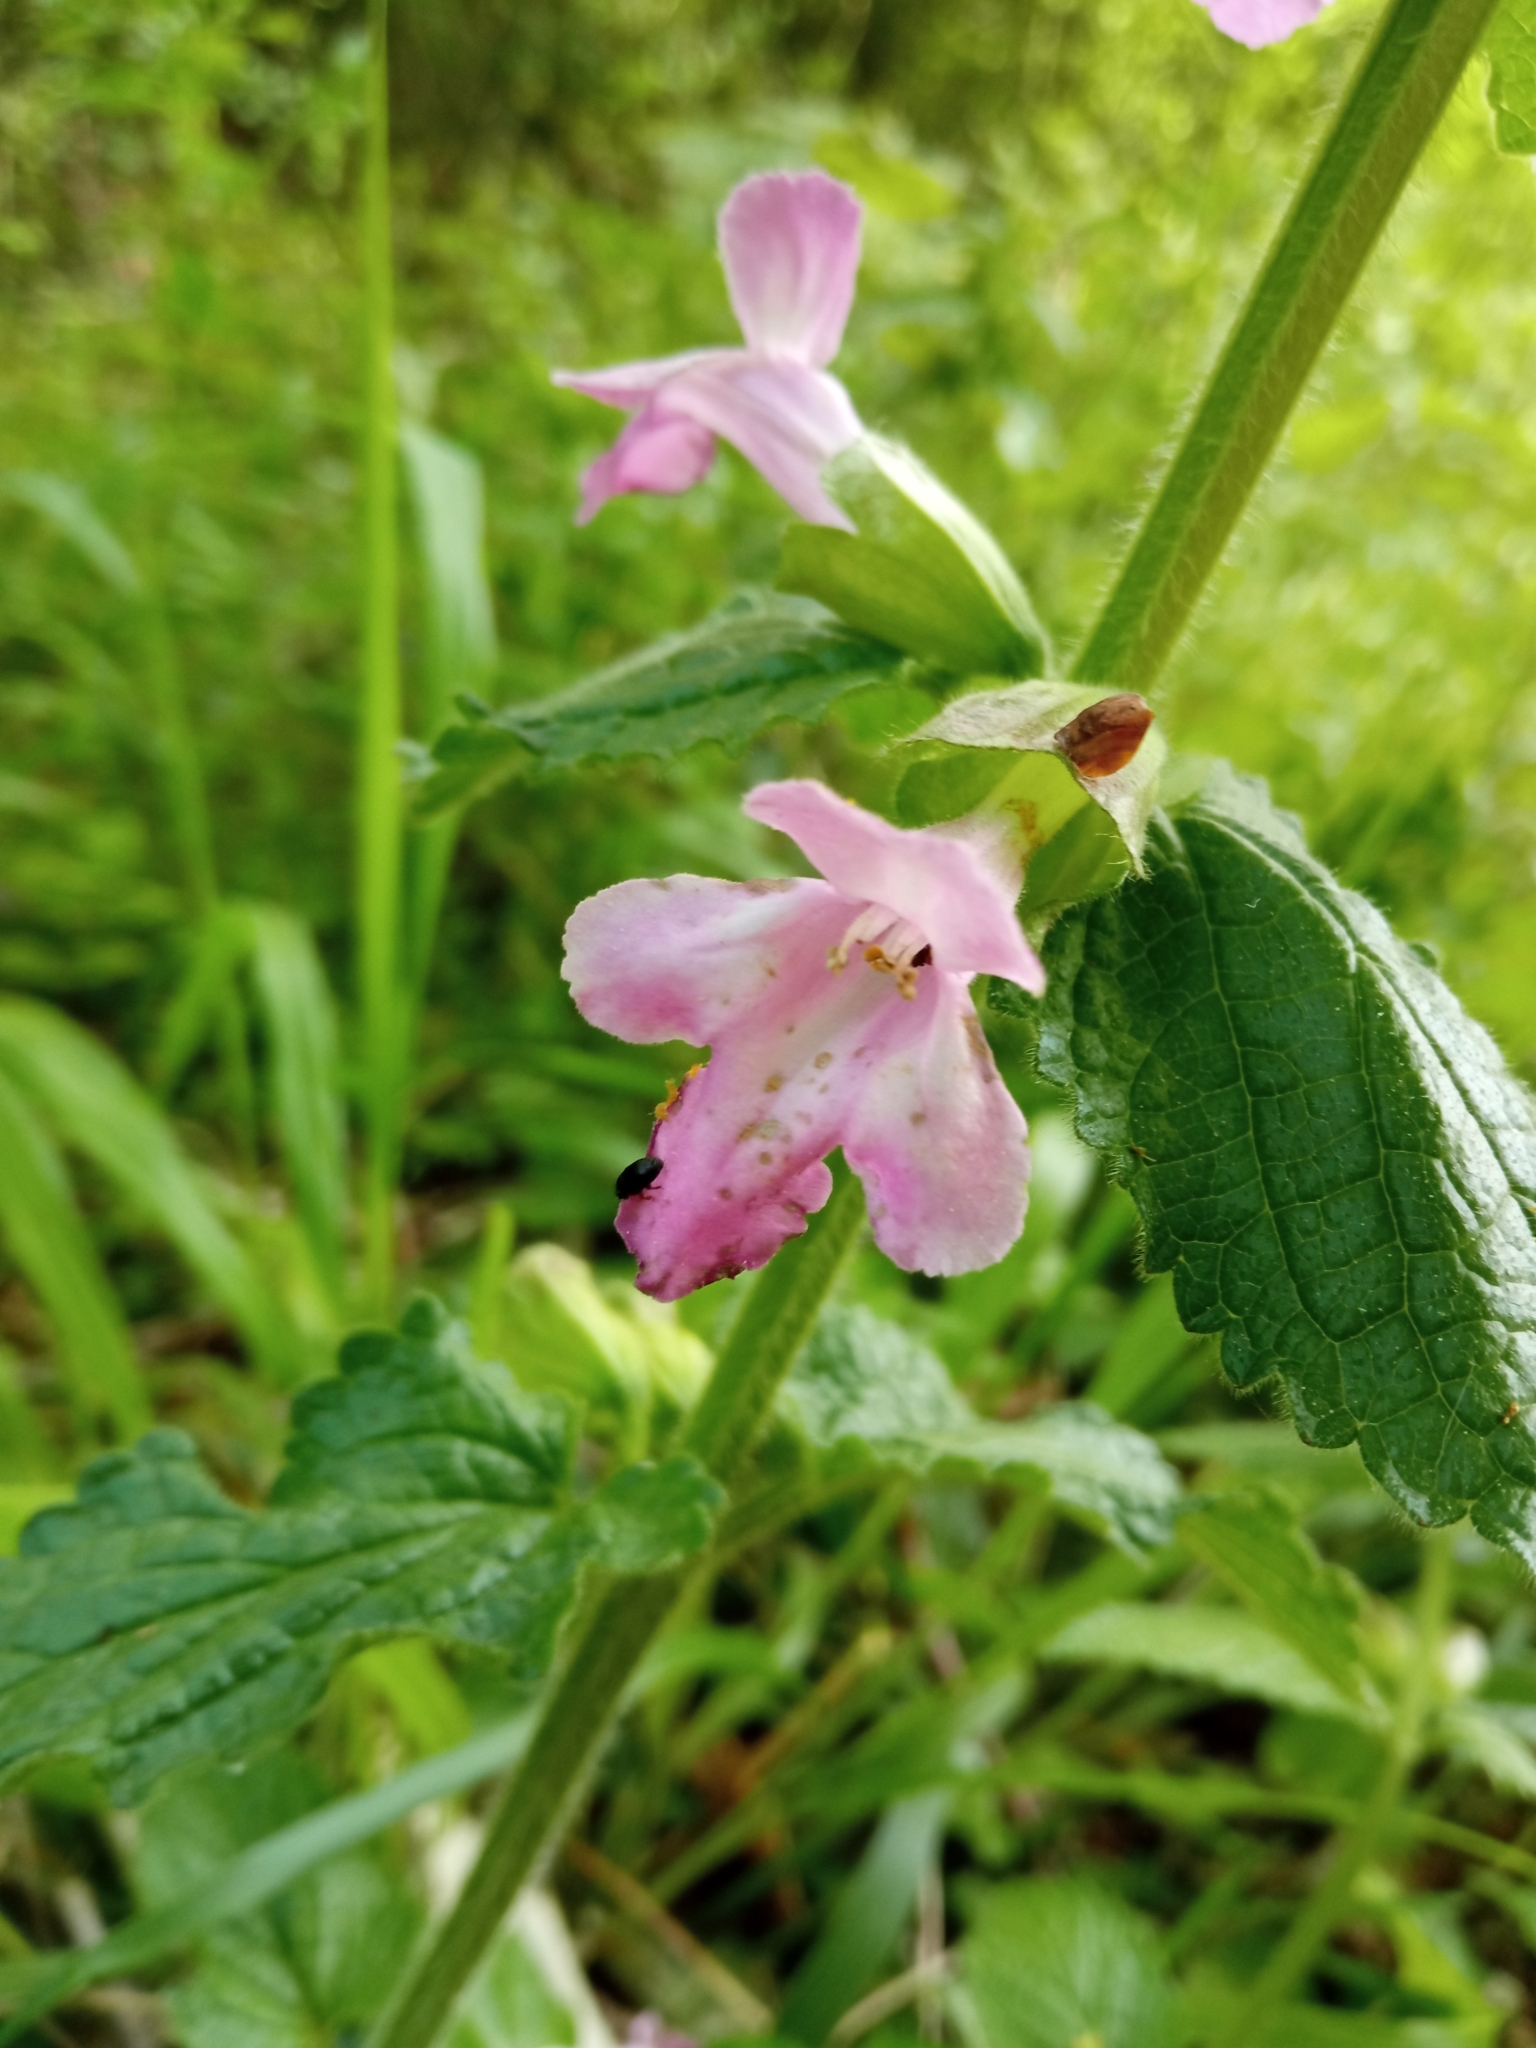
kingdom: Plantae
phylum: Tracheophyta
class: Magnoliopsida
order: Lamiales
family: Lamiaceae
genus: Melittis
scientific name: Melittis melissophyllum
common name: Bastard balm
